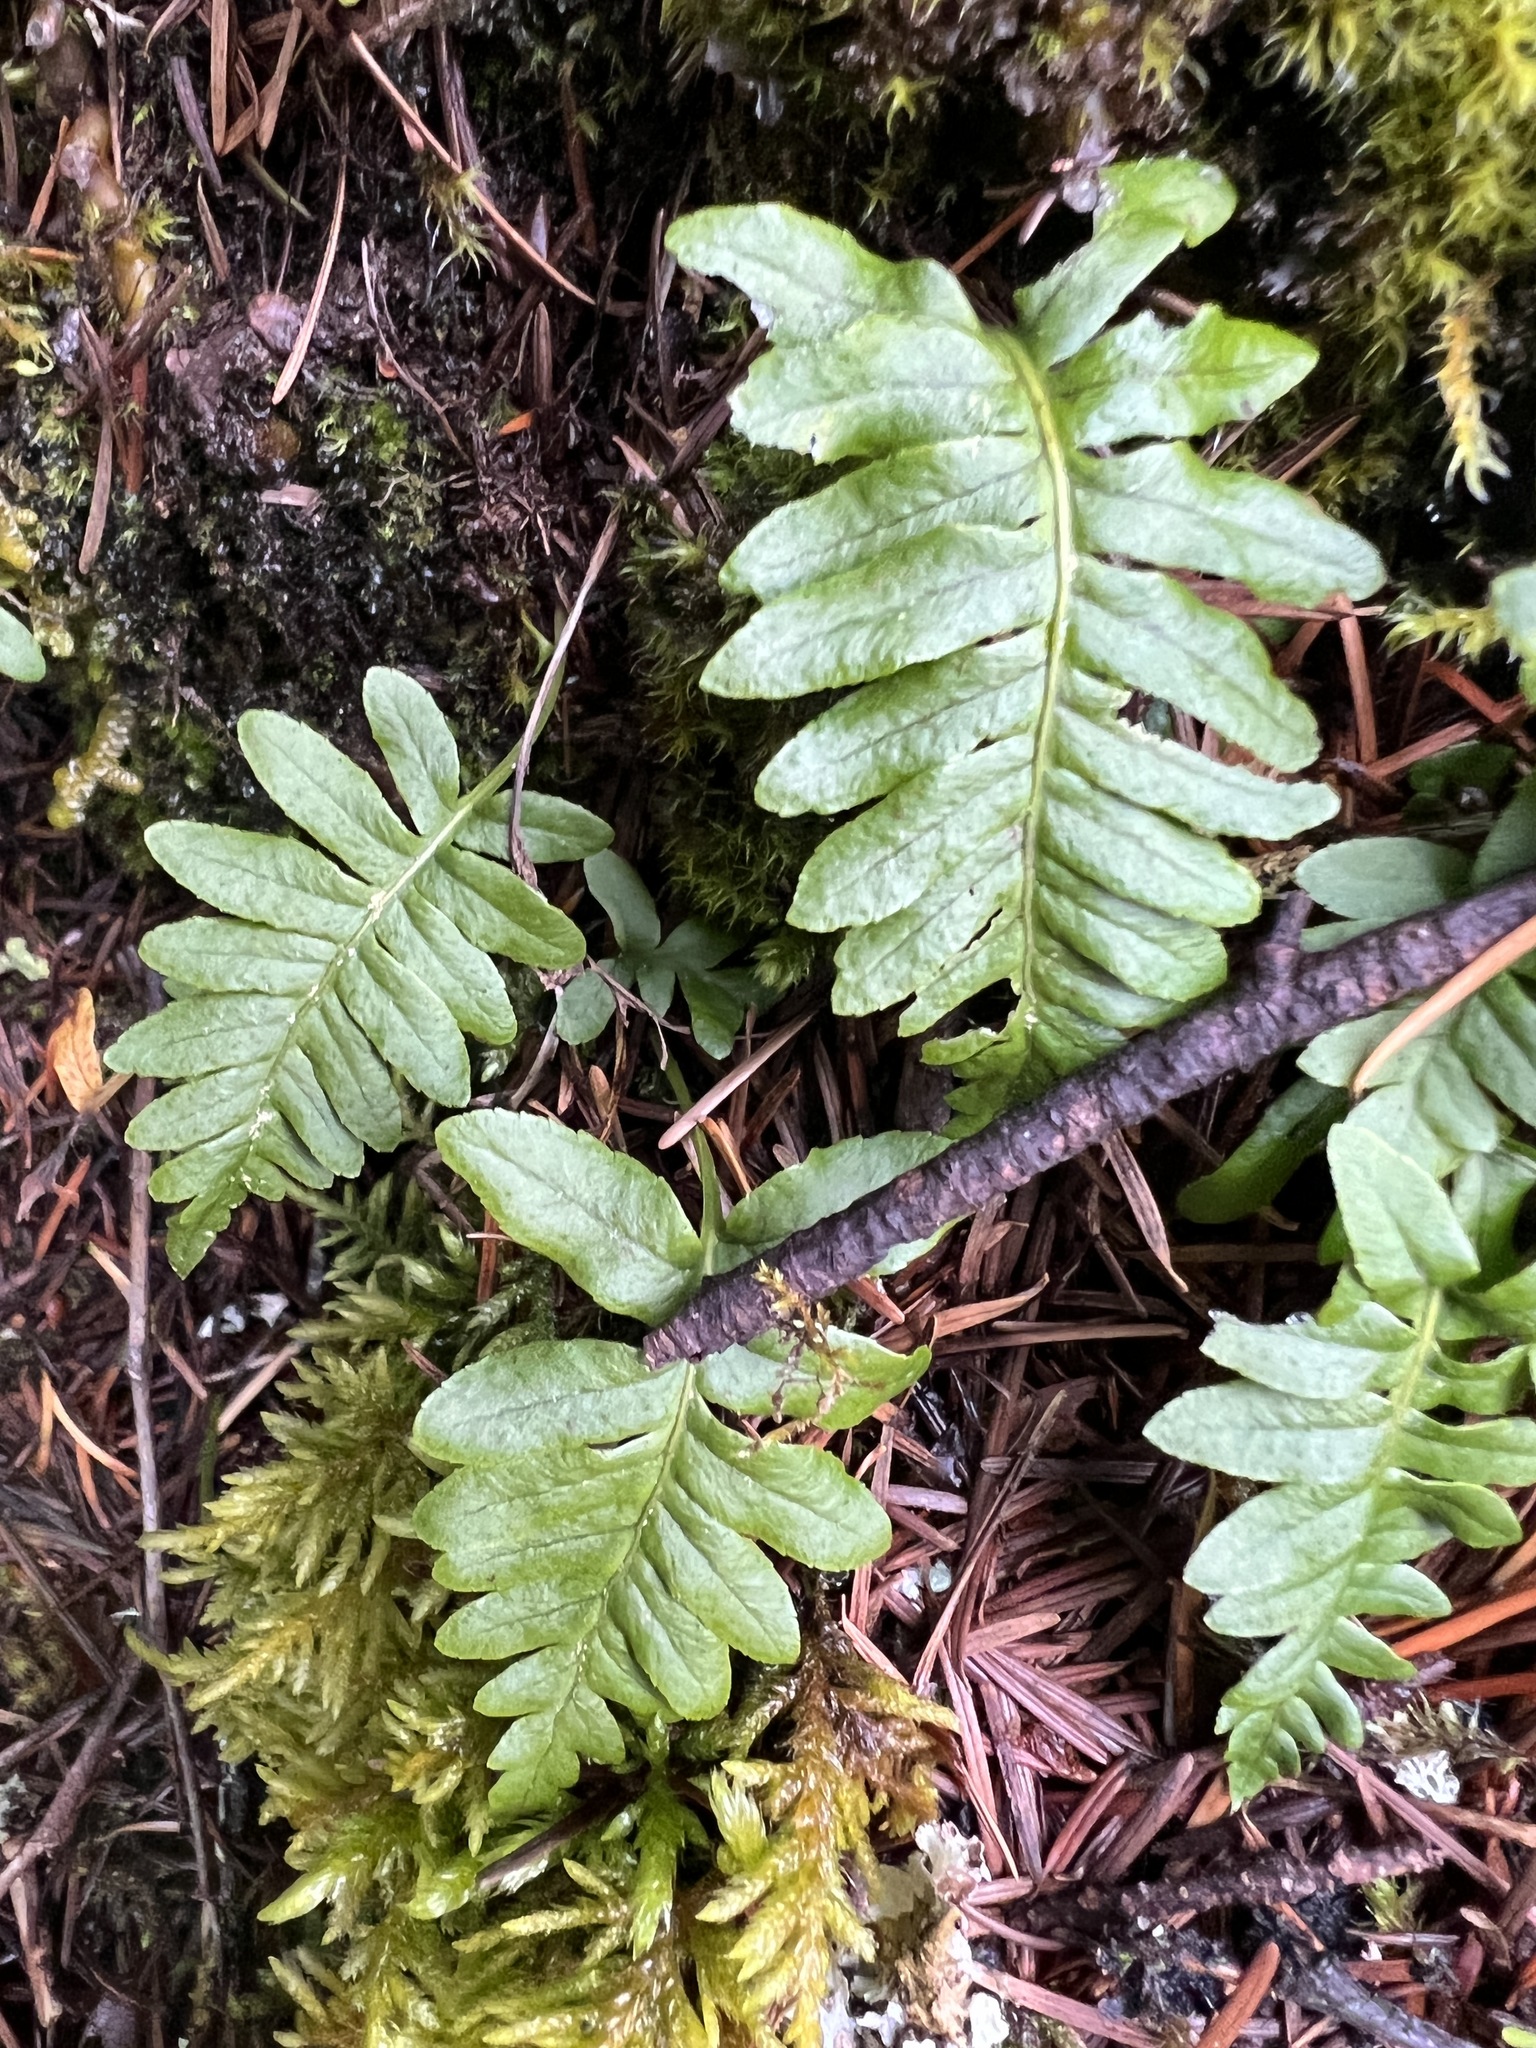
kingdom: Plantae
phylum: Tracheophyta
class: Polypodiopsida
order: Polypodiales
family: Polypodiaceae
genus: Polypodium
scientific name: Polypodium glycyrrhiza
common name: Licorice fern
